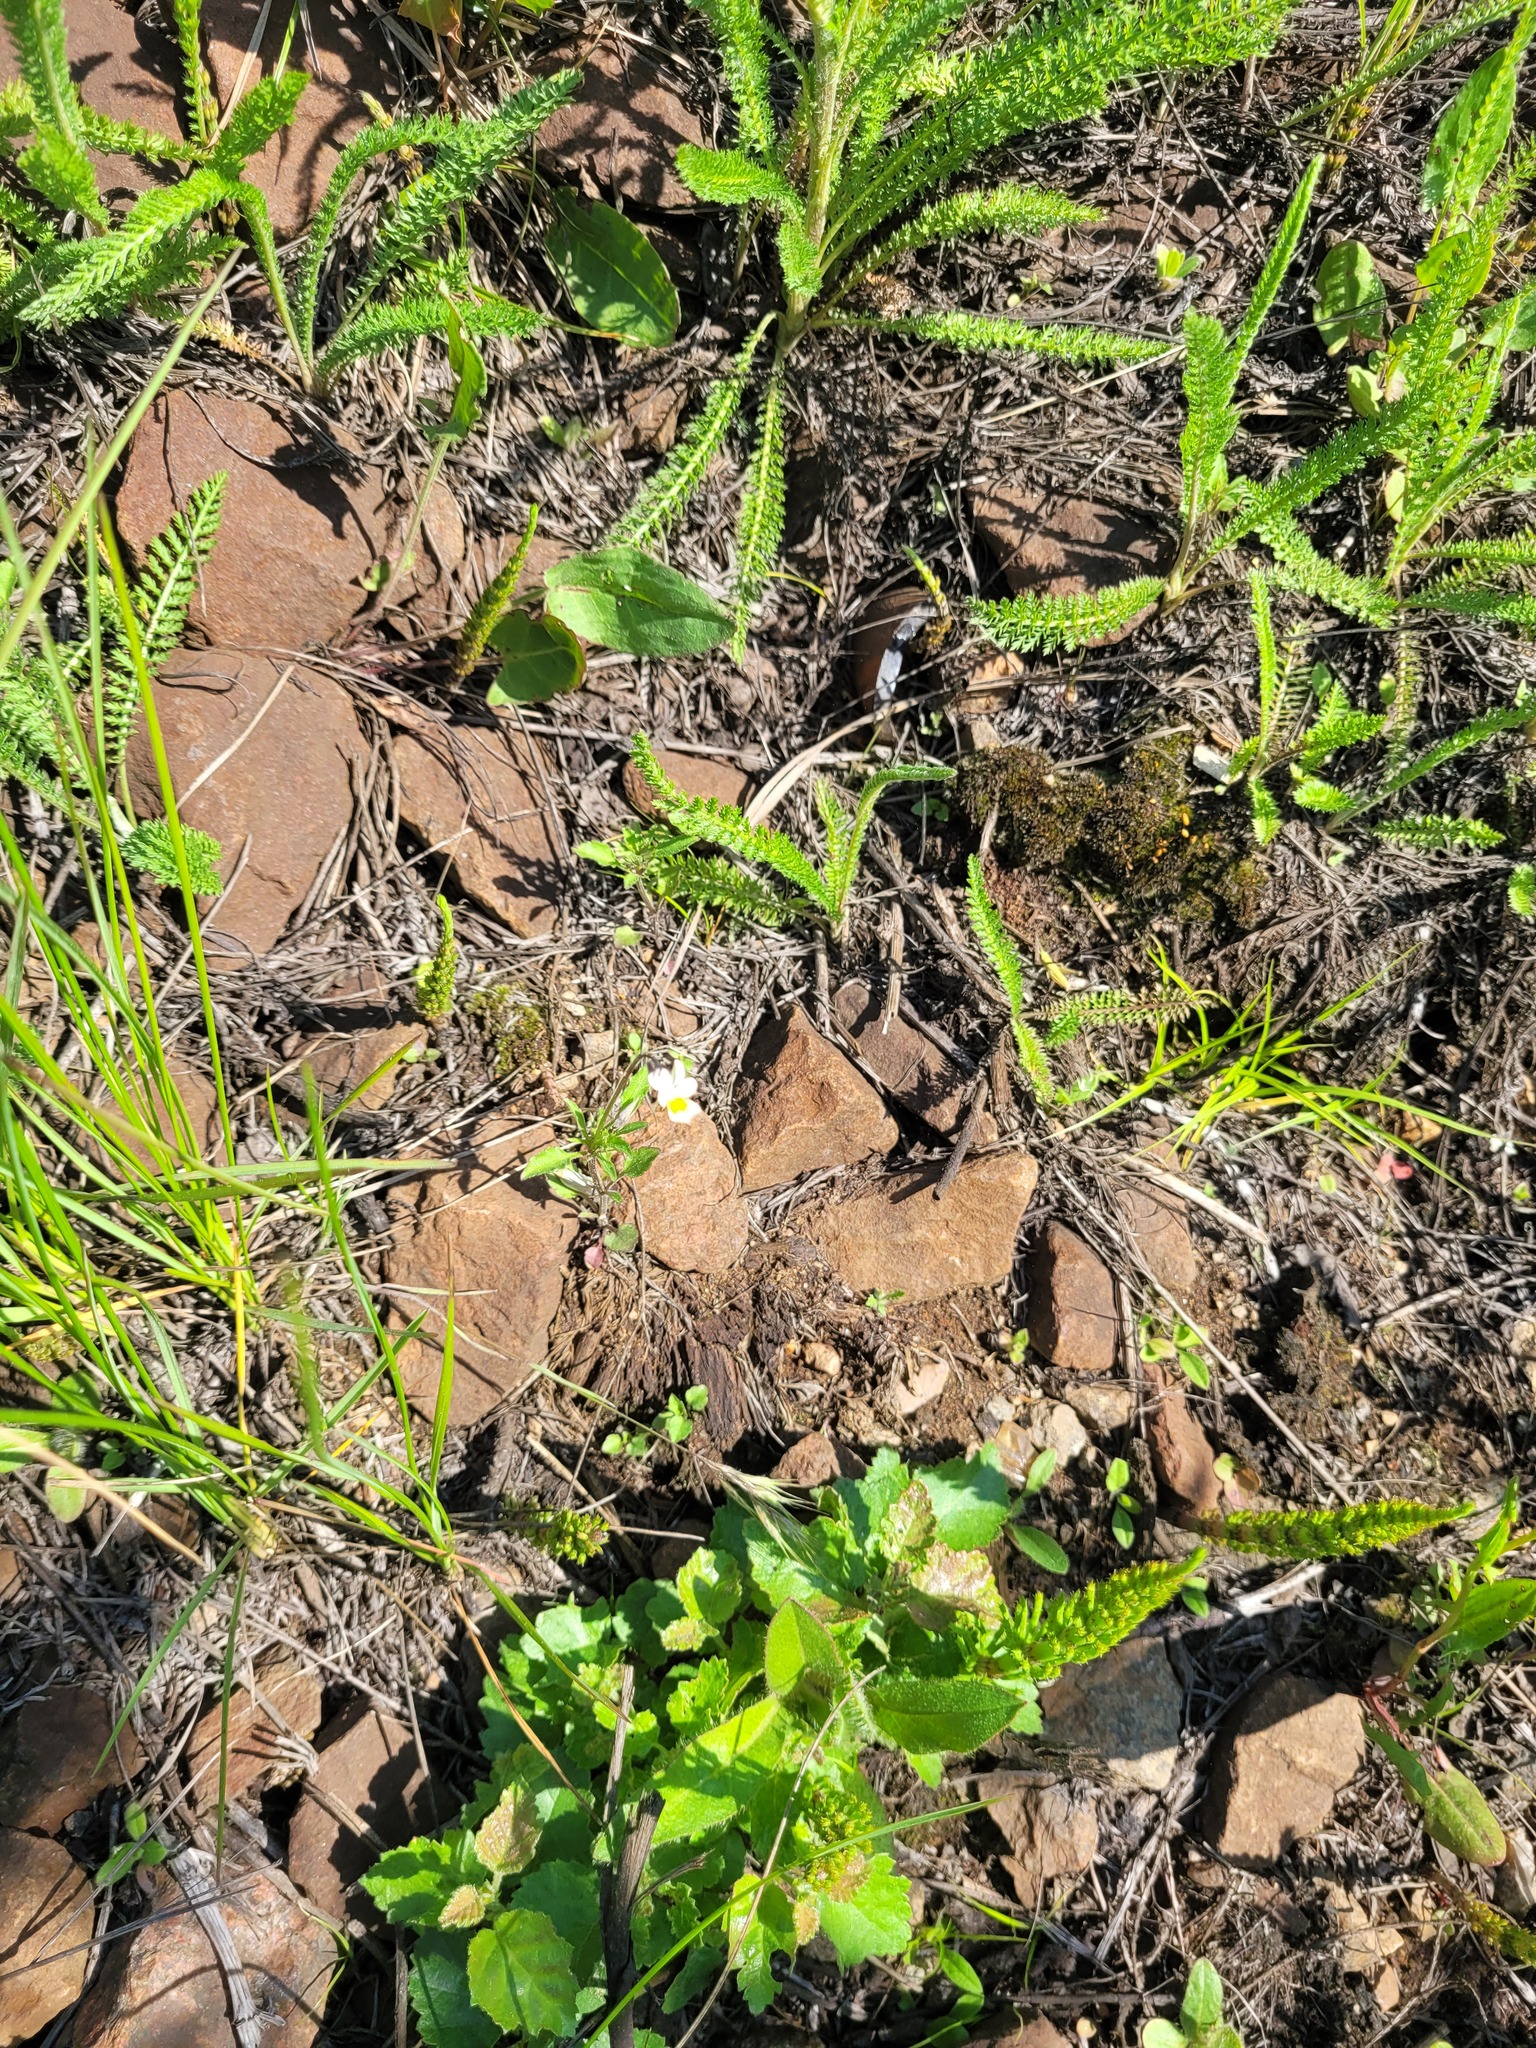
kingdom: Plantae
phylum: Tracheophyta
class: Magnoliopsida
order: Malpighiales
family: Violaceae
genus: Viola
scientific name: Viola arvensis
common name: Field pansy
